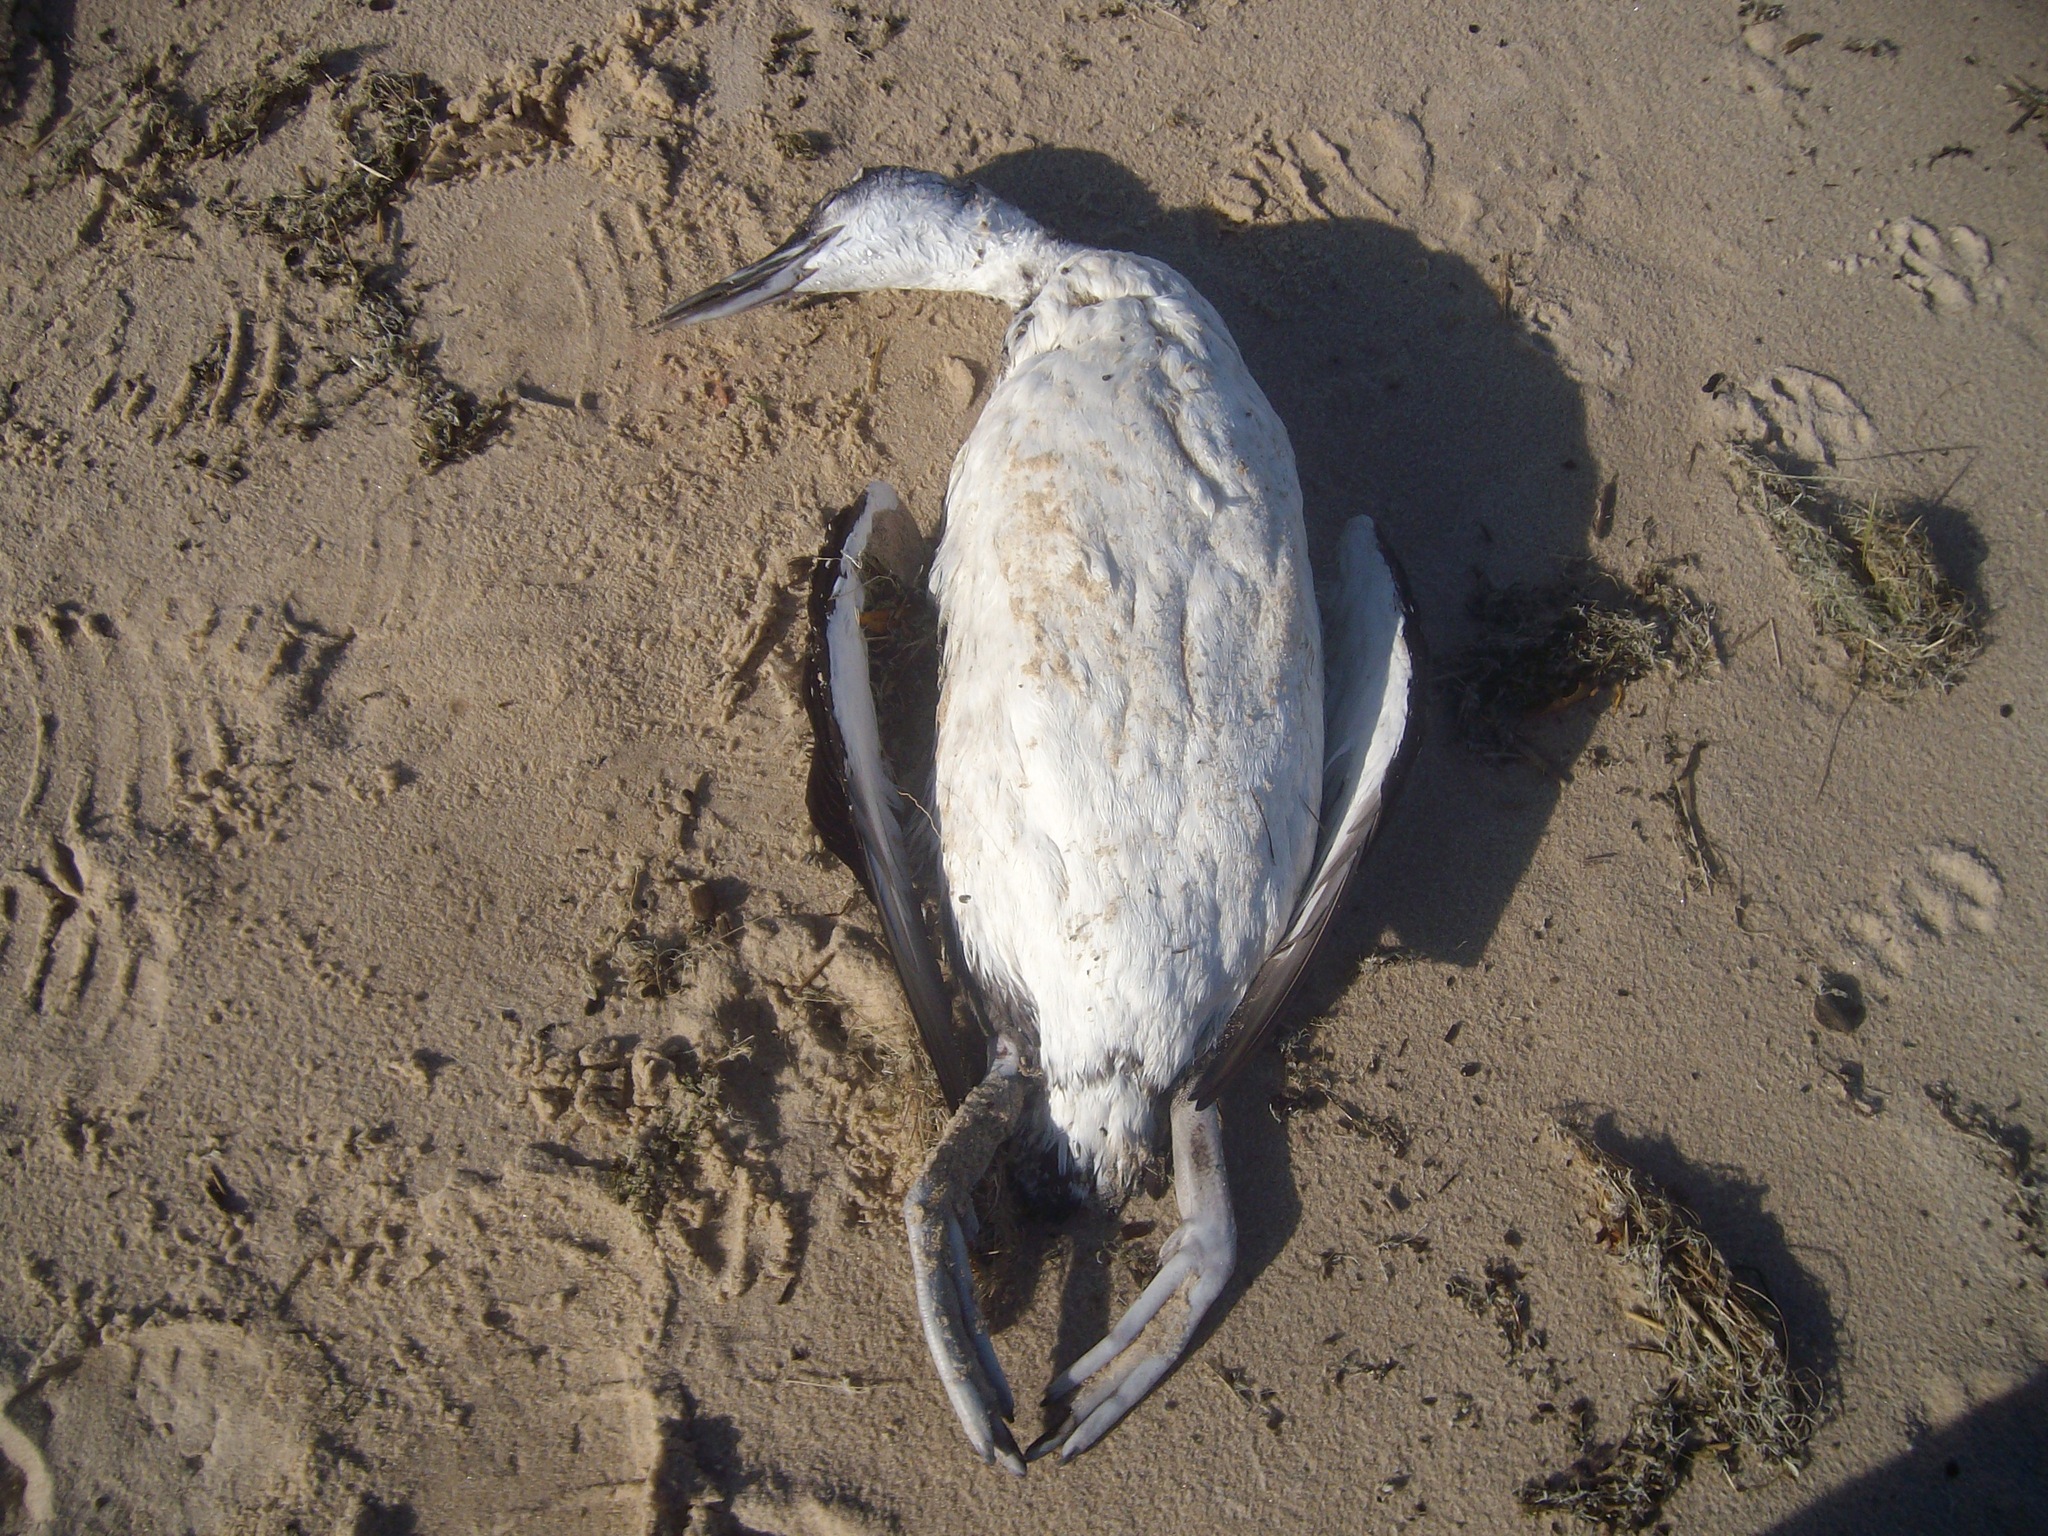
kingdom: Animalia
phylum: Chordata
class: Aves
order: Gaviiformes
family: Gaviidae
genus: Gavia
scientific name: Gavia immer
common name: Common loon
